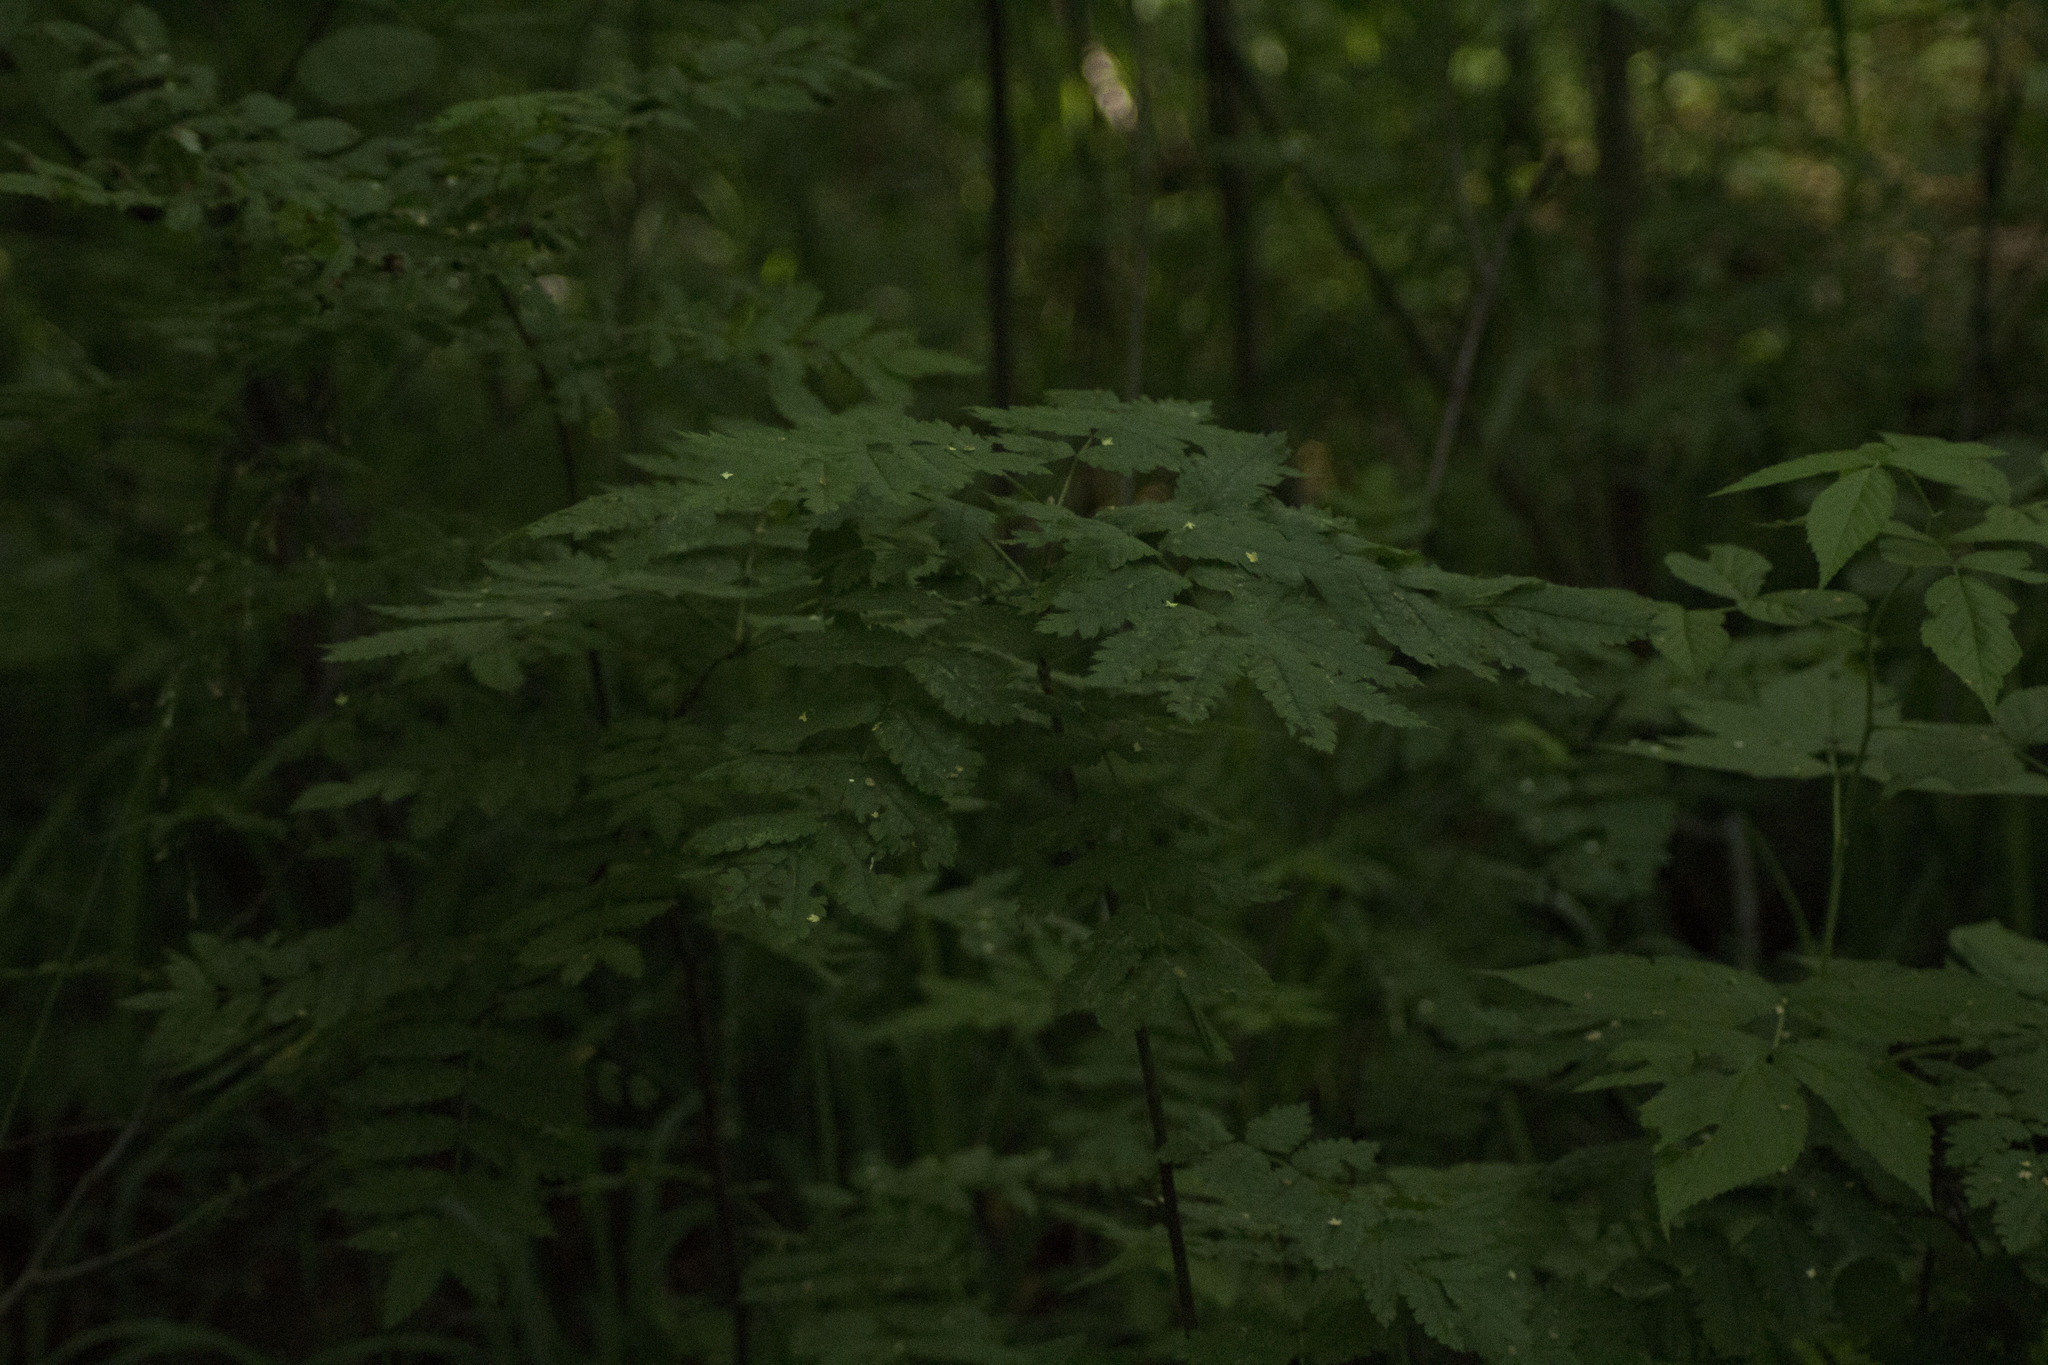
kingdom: Plantae
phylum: Tracheophyta
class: Magnoliopsida
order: Rosales
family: Rosaceae
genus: Sorbus
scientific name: Sorbus aucuparia
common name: Rowan
